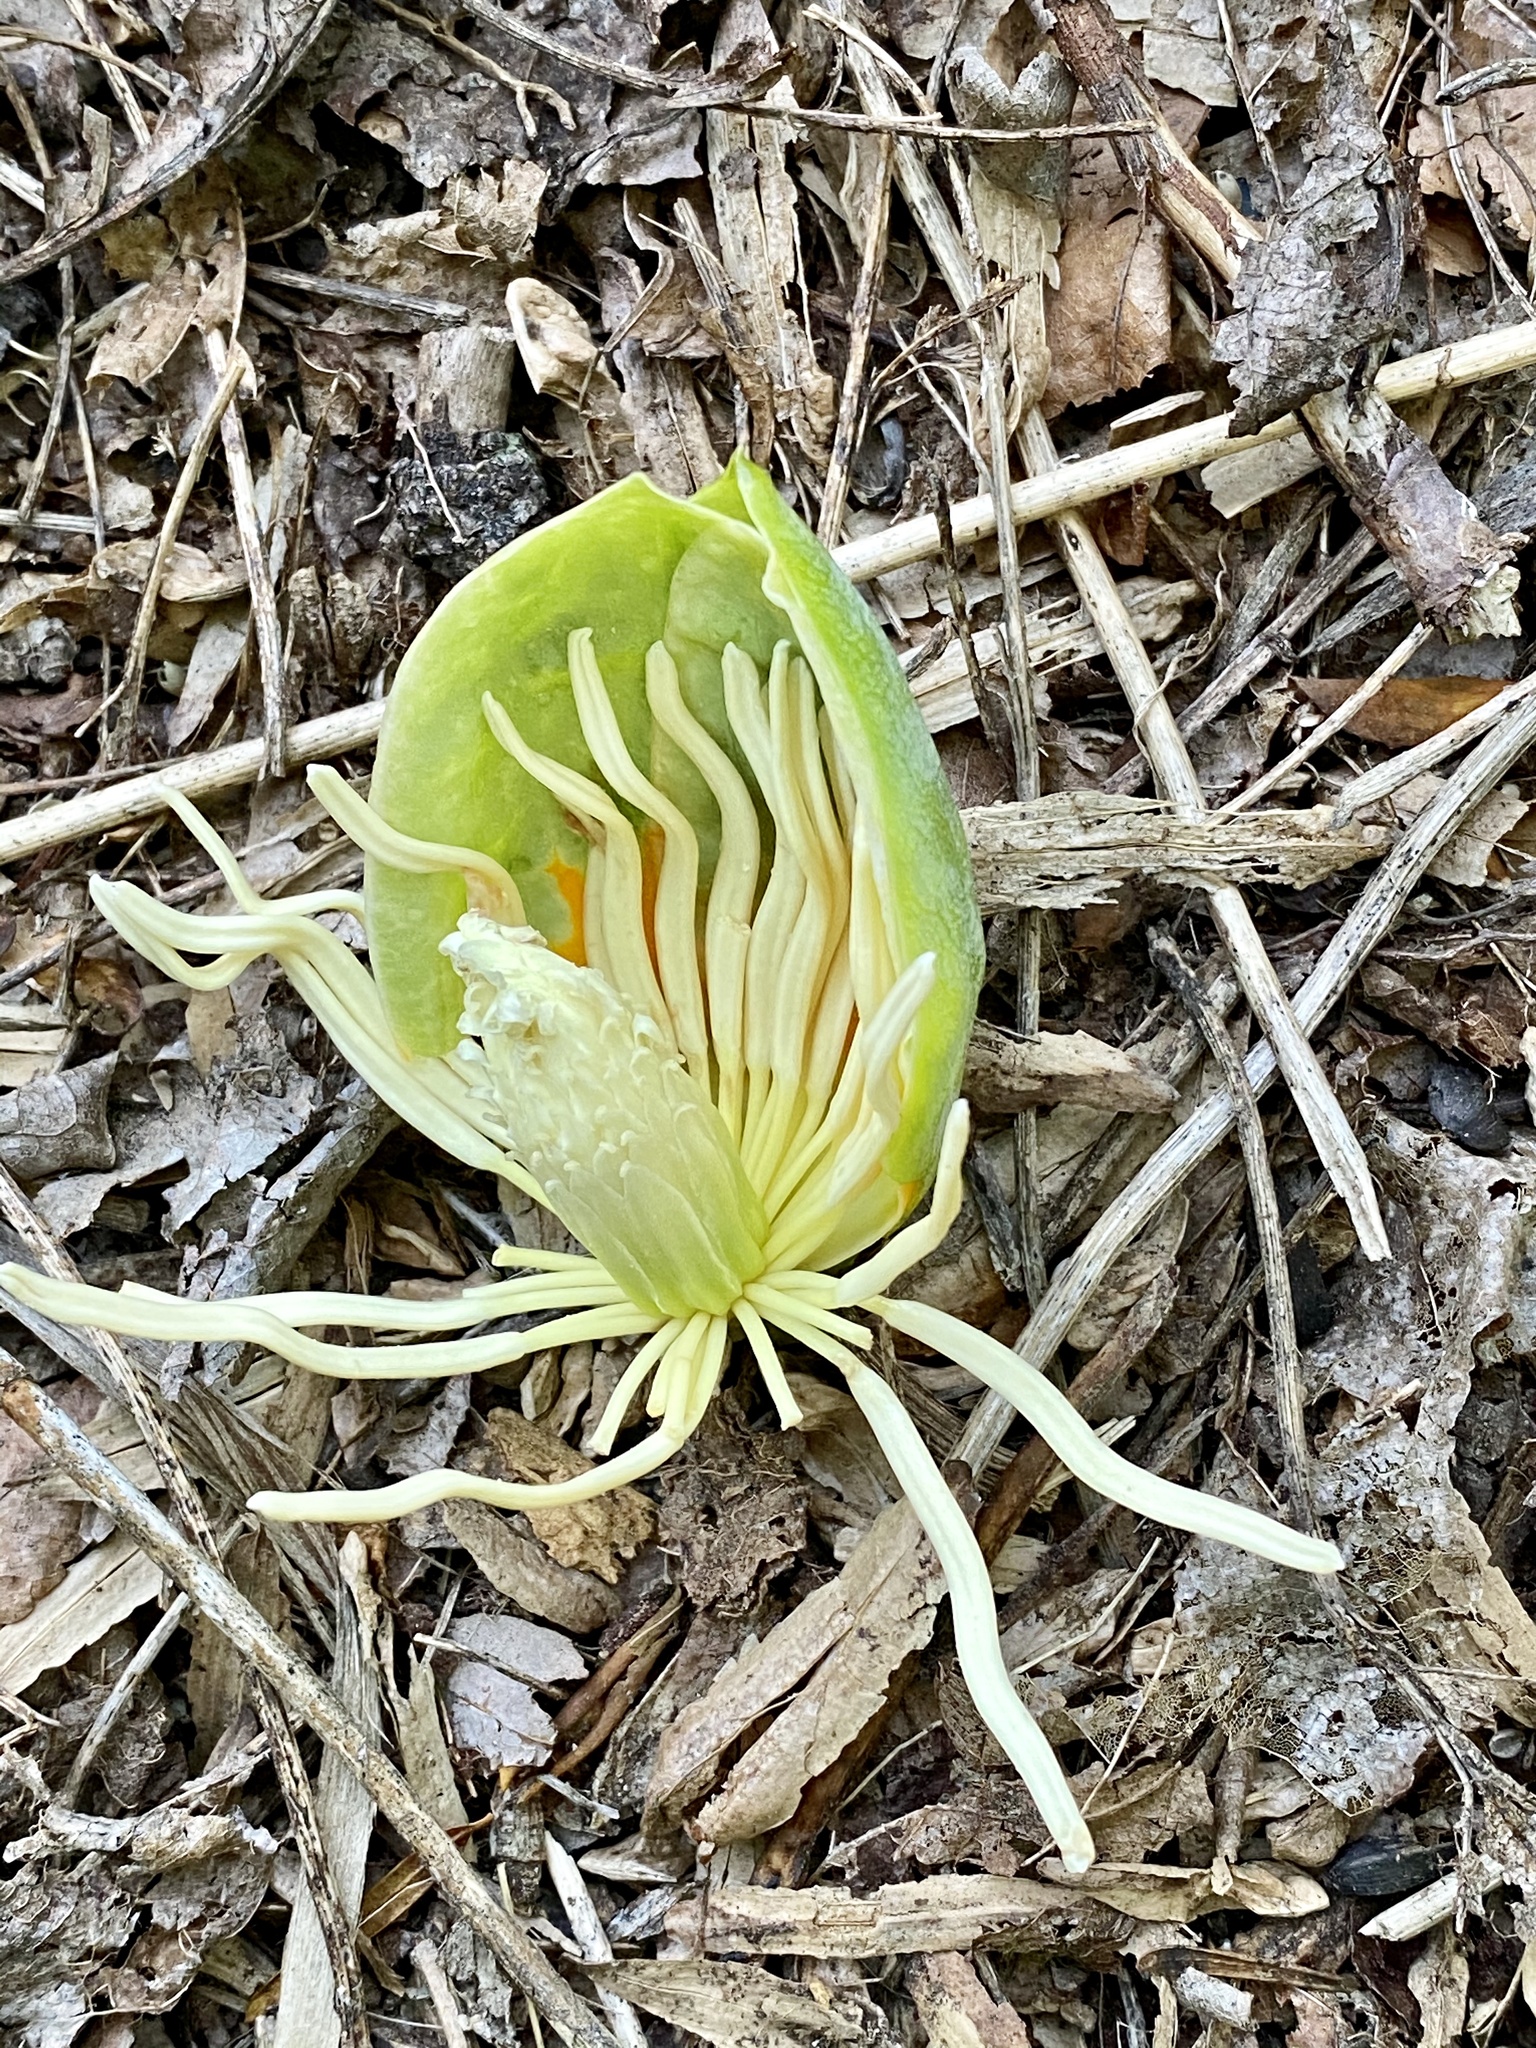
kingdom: Plantae
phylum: Tracheophyta
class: Magnoliopsida
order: Magnoliales
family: Magnoliaceae
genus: Liriodendron
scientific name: Liriodendron tulipifera
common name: Tulip tree
